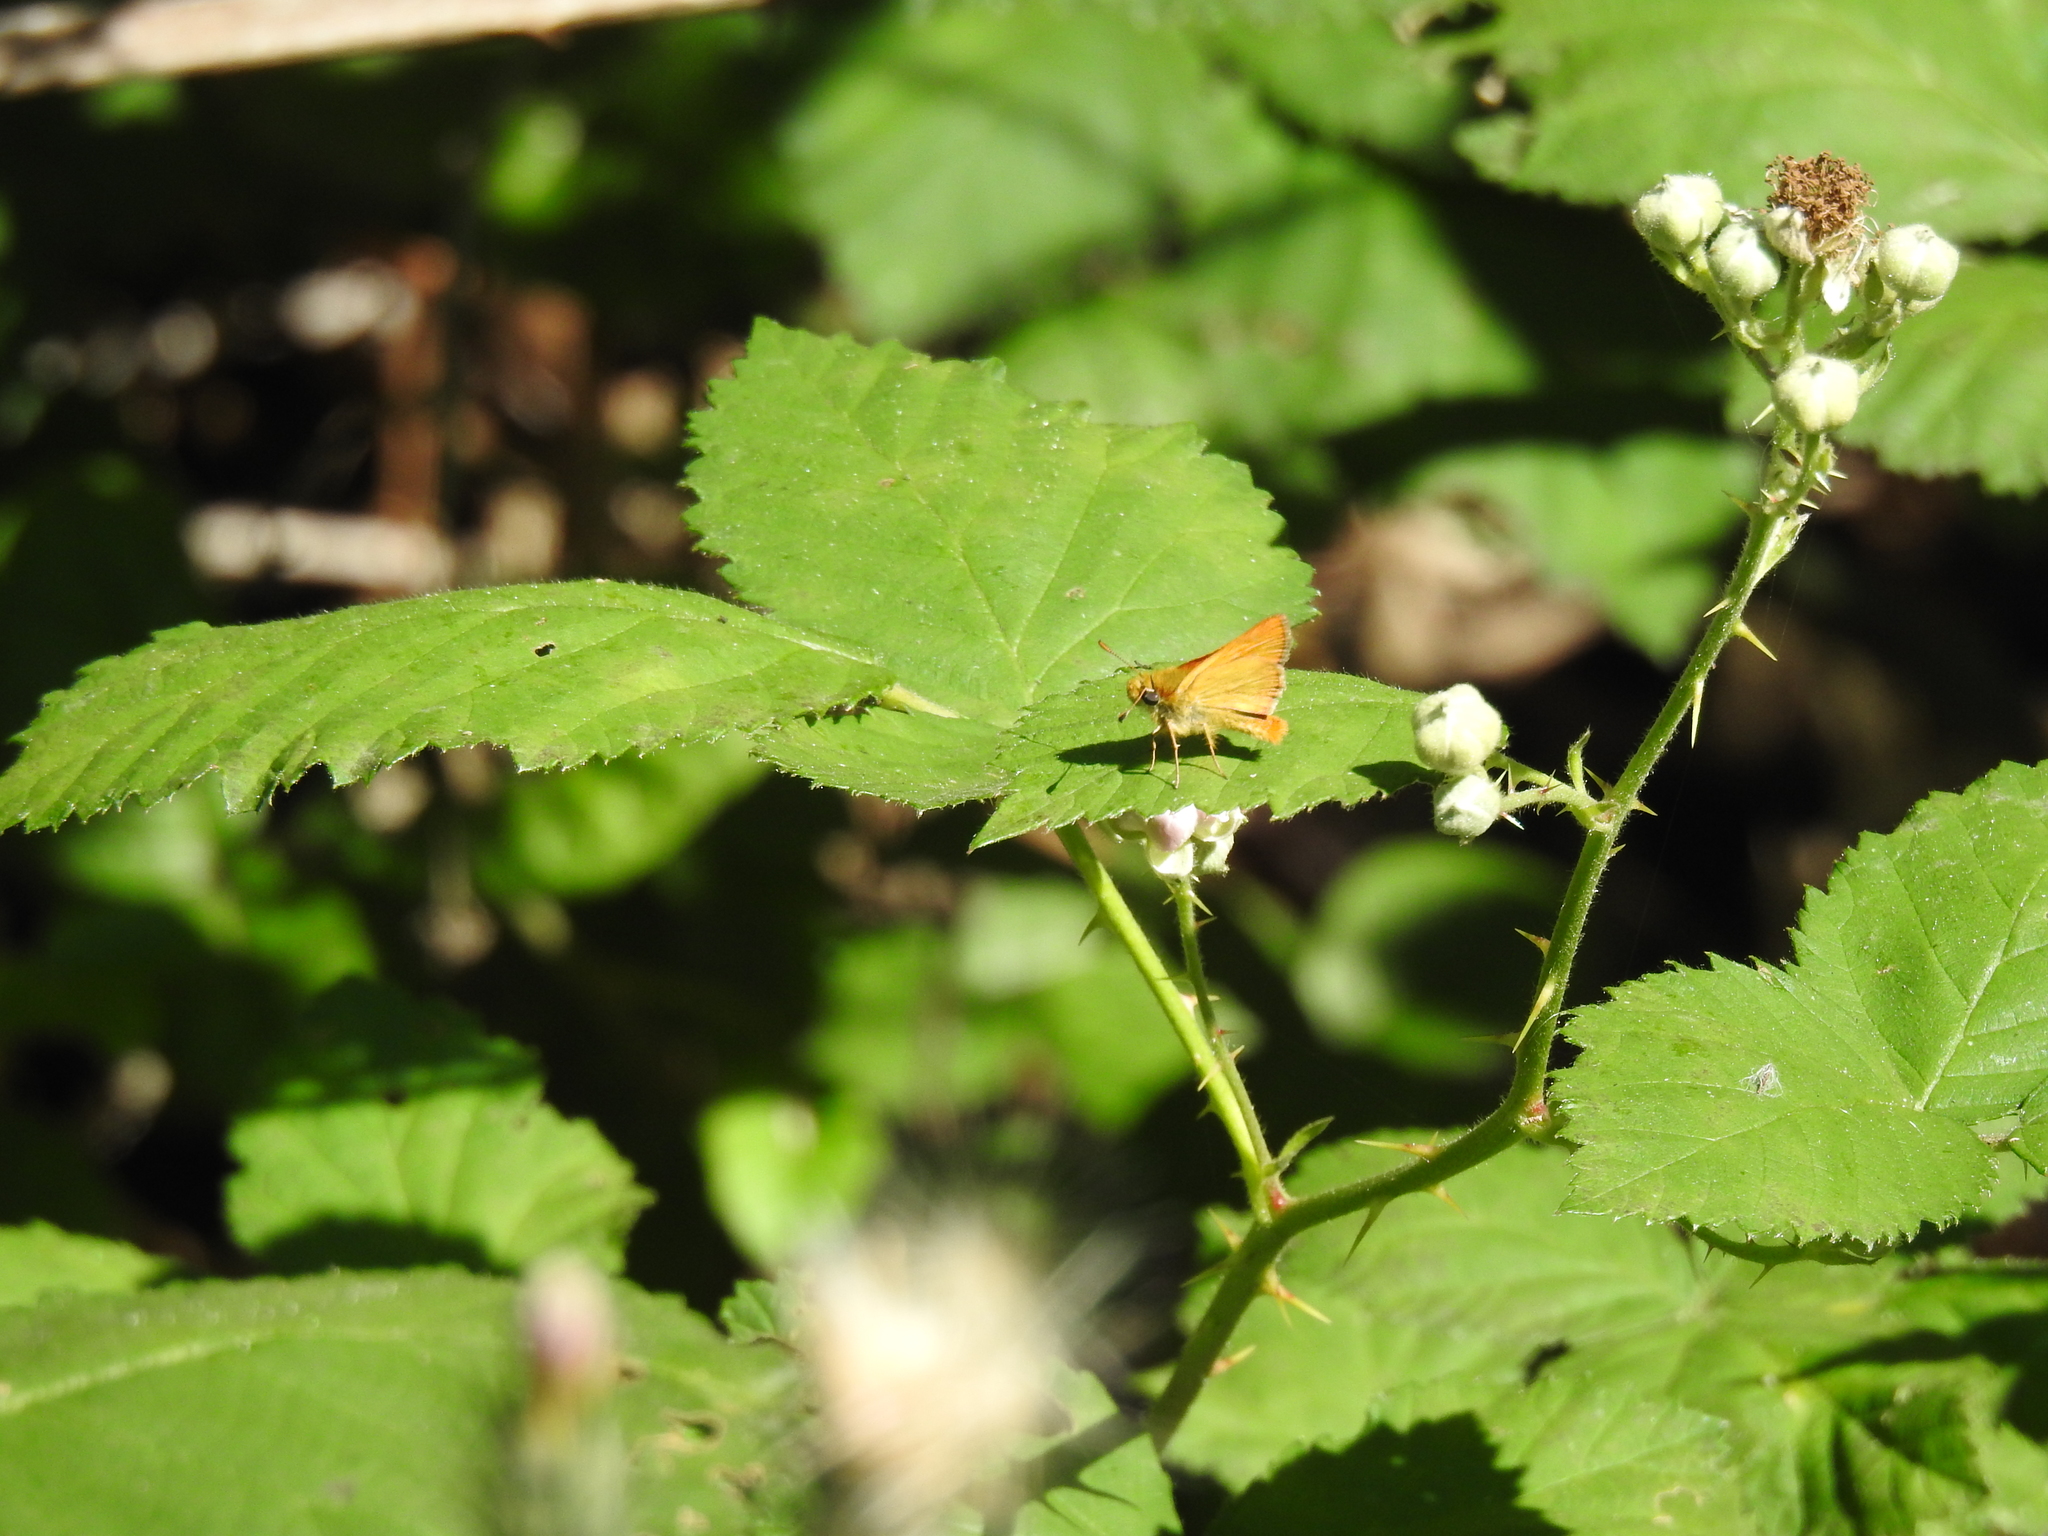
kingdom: Animalia
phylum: Arthropoda
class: Insecta
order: Lepidoptera
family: Hesperiidae
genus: Ochlodes
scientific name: Ochlodes agricola
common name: Rural skipper
